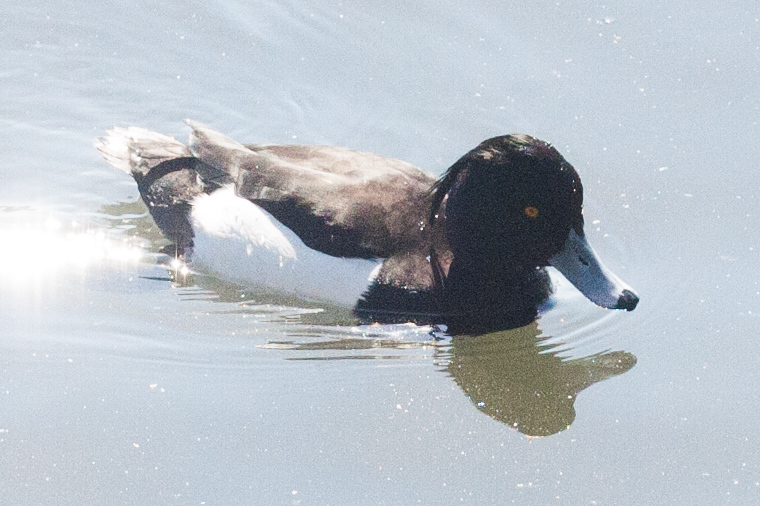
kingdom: Animalia
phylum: Chordata
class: Aves
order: Anseriformes
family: Anatidae
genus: Aythya
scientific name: Aythya fuligula
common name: Tufted duck
